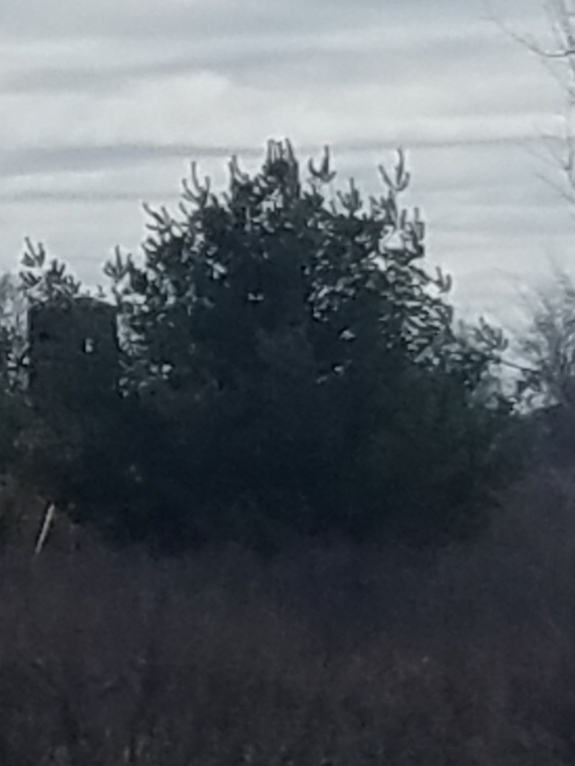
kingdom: Plantae
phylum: Tracheophyta
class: Pinopsida
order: Pinales
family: Pinaceae
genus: Pinus
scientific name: Pinus strobus
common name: Weymouth pine
